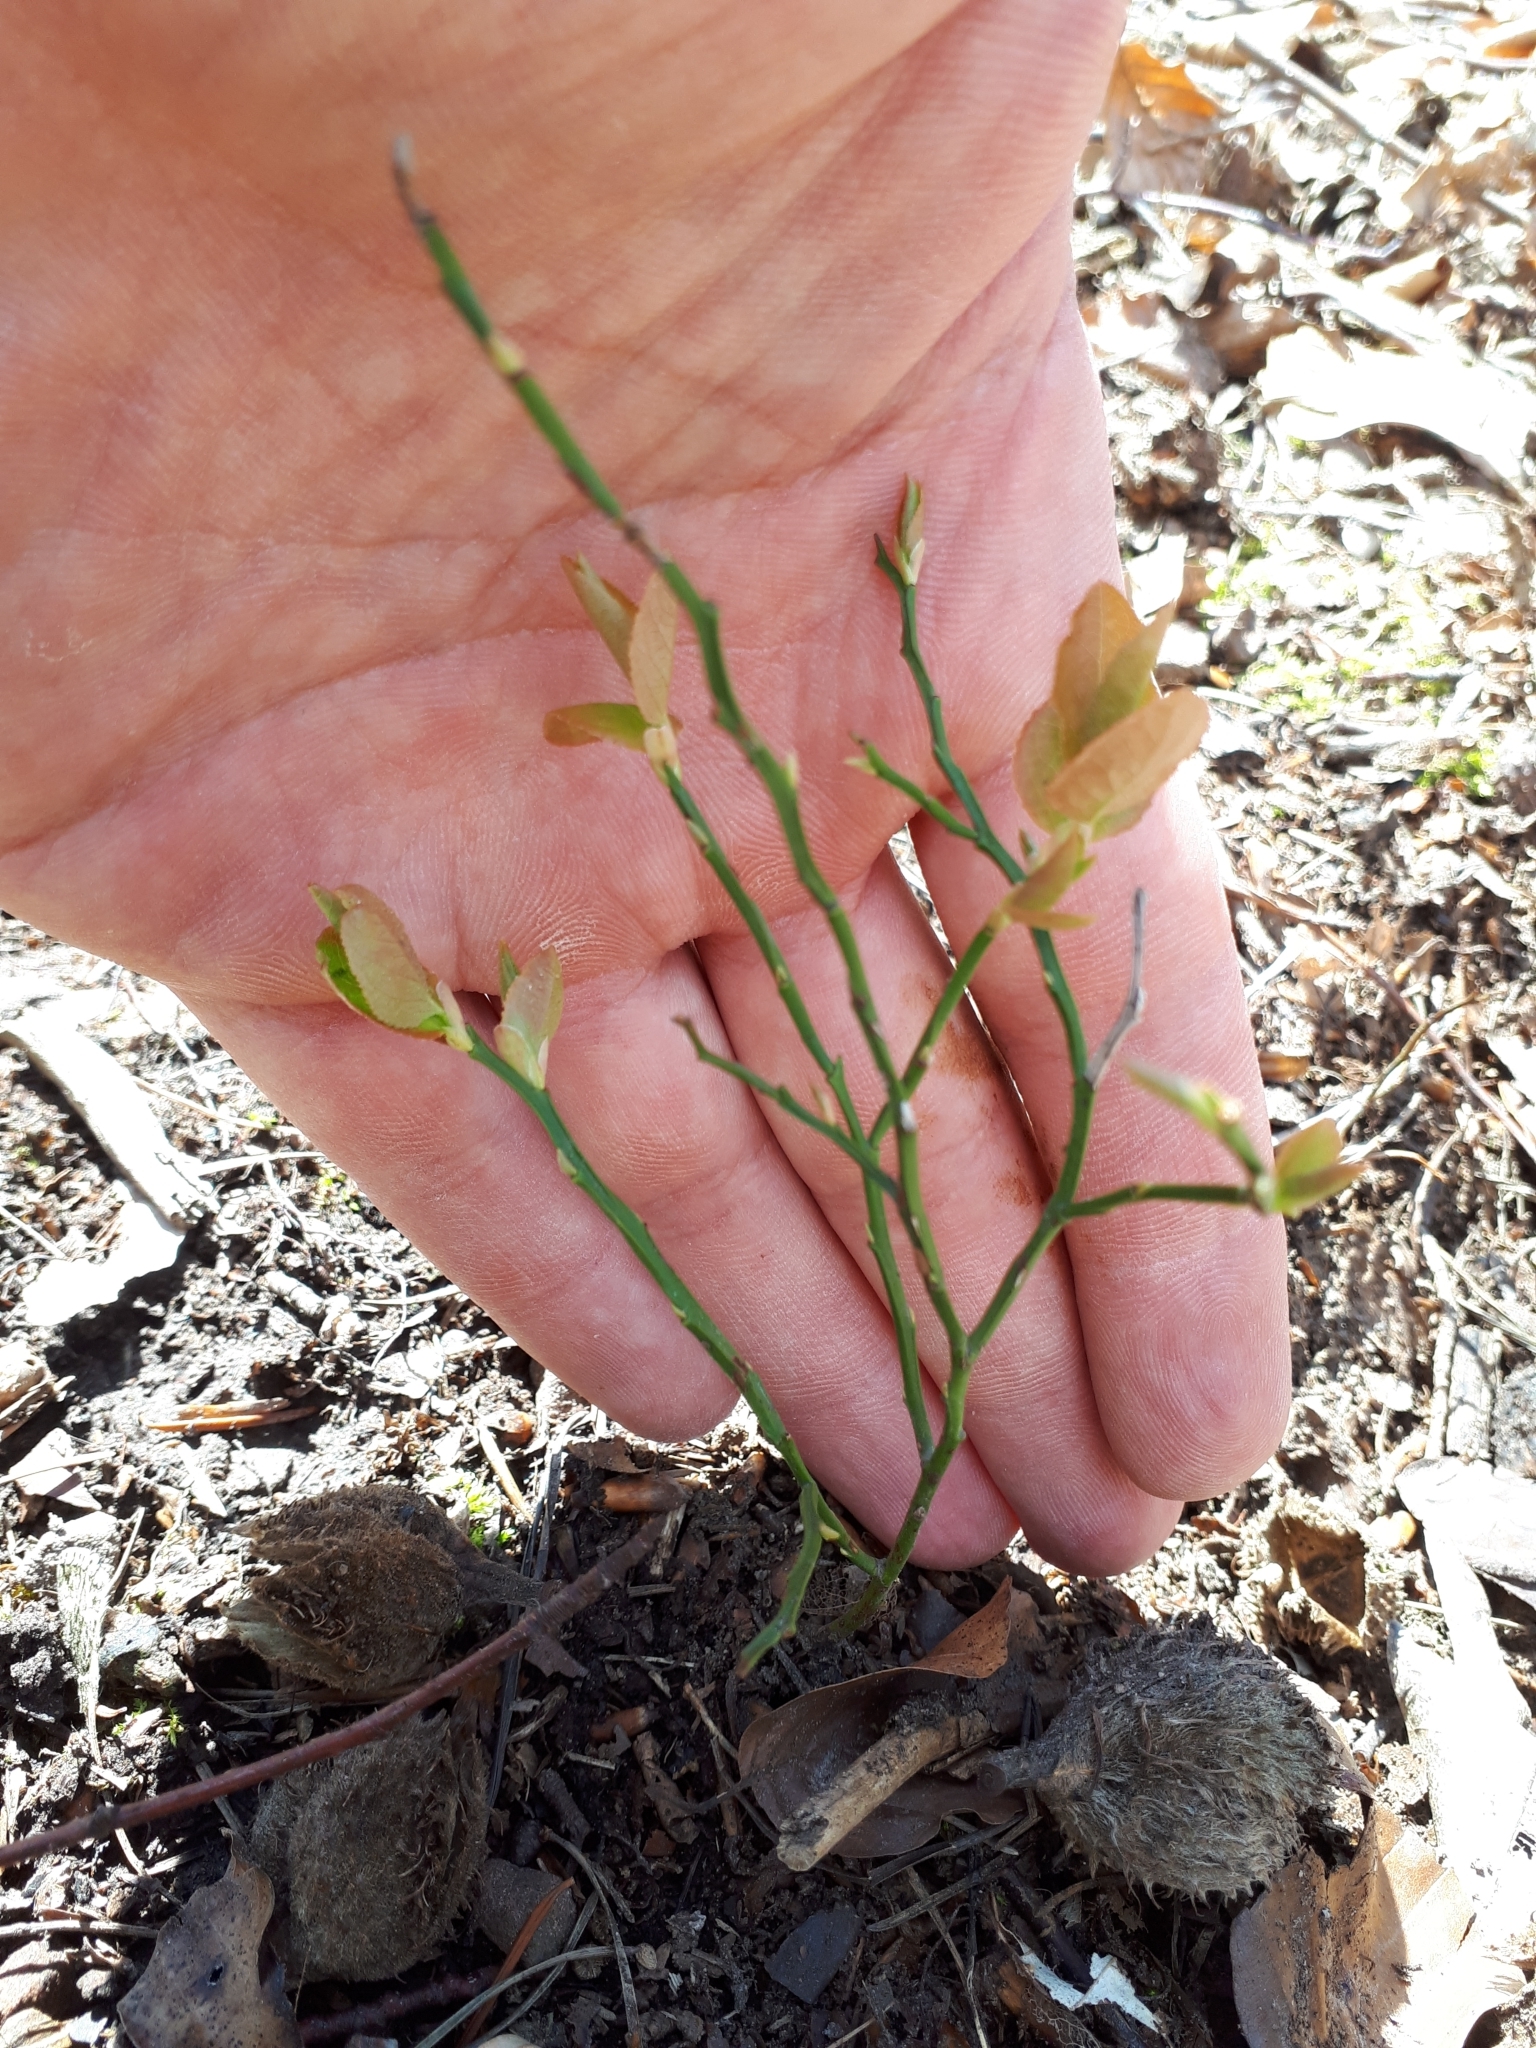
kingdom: Plantae
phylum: Tracheophyta
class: Magnoliopsida
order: Ericales
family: Ericaceae
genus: Vaccinium
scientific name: Vaccinium myrtillus
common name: Bilberry
